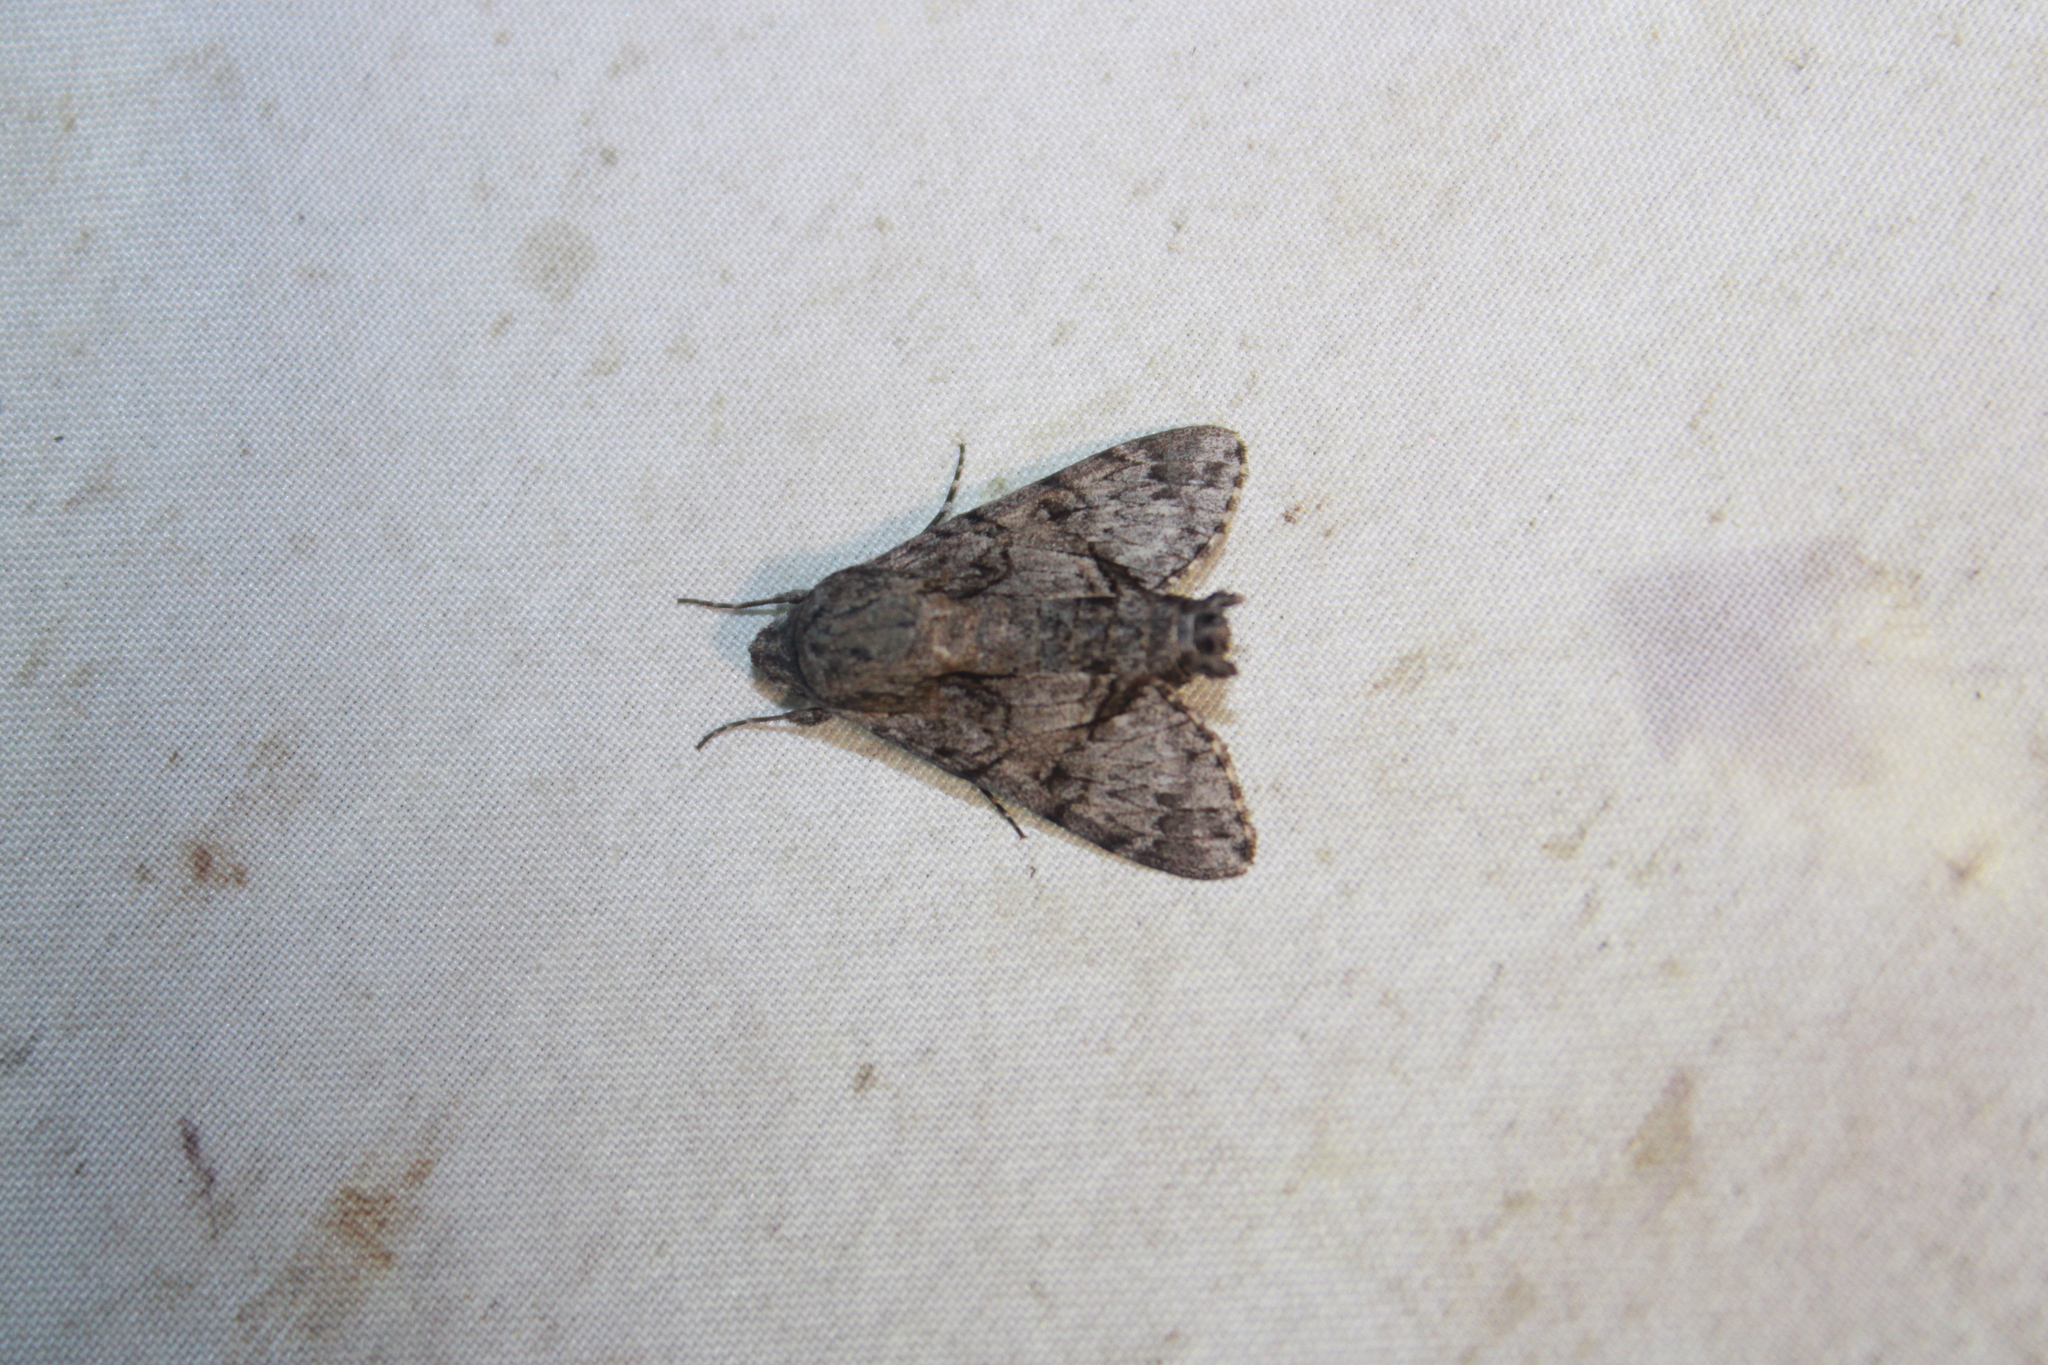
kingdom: Animalia
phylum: Arthropoda
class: Insecta
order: Lepidoptera
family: Sphingidae
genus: Cautethia
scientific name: Cautethia grotei
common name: Grote's sphinx
